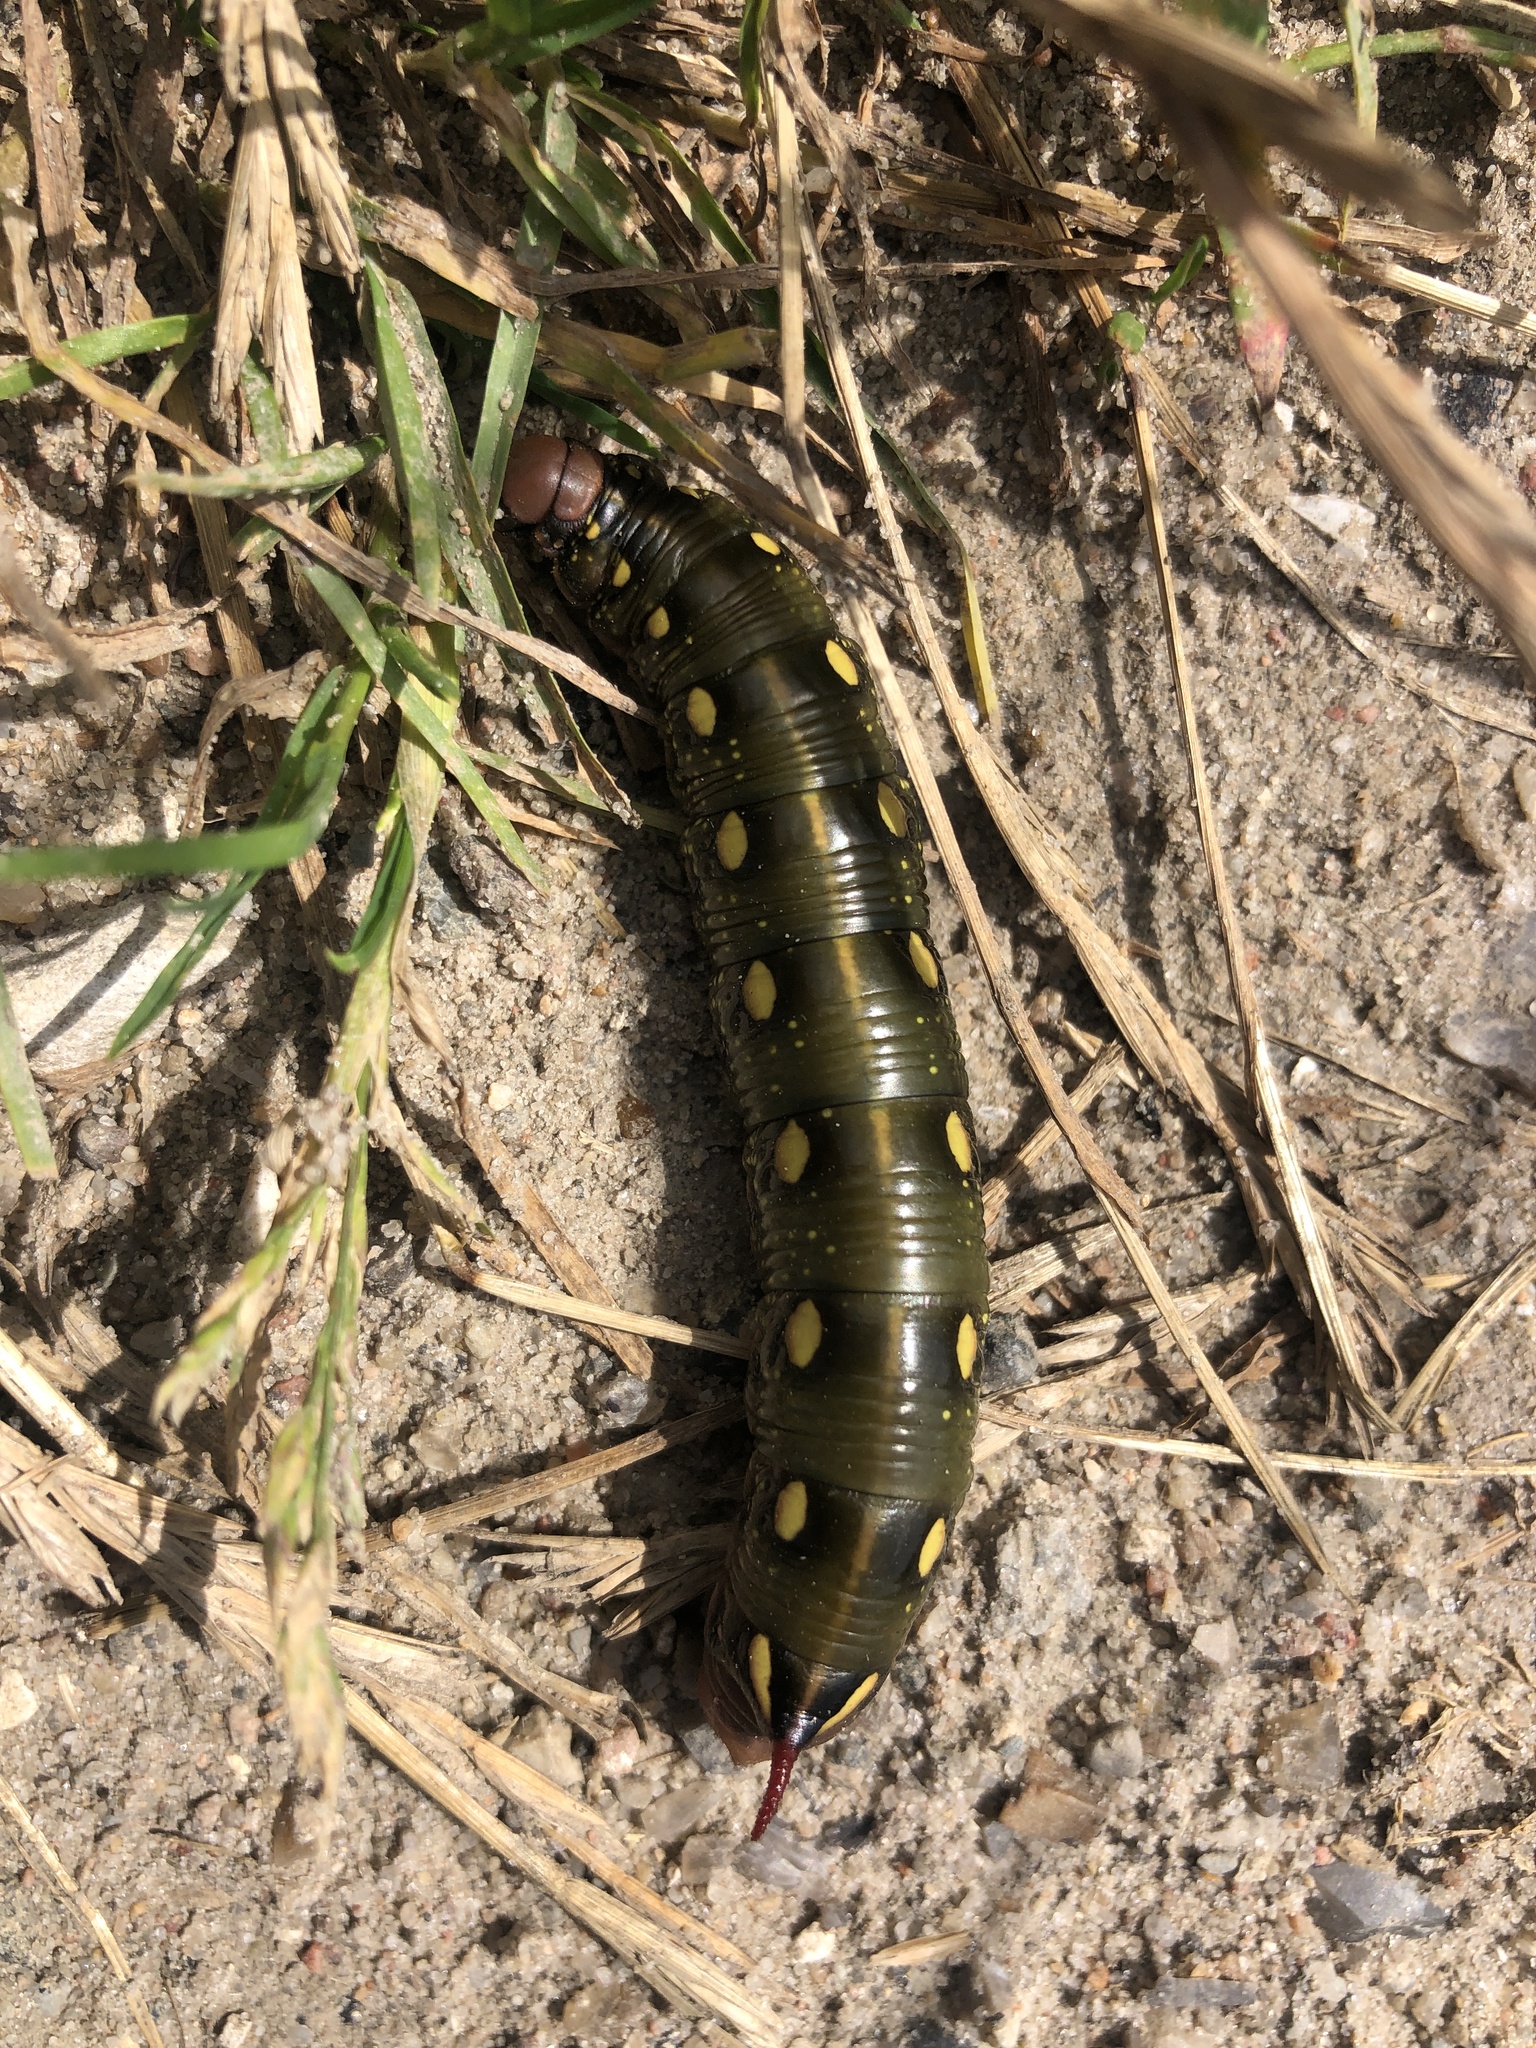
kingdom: Animalia
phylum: Arthropoda
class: Insecta
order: Lepidoptera
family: Sphingidae
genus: Hyles
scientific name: Hyles gallii
